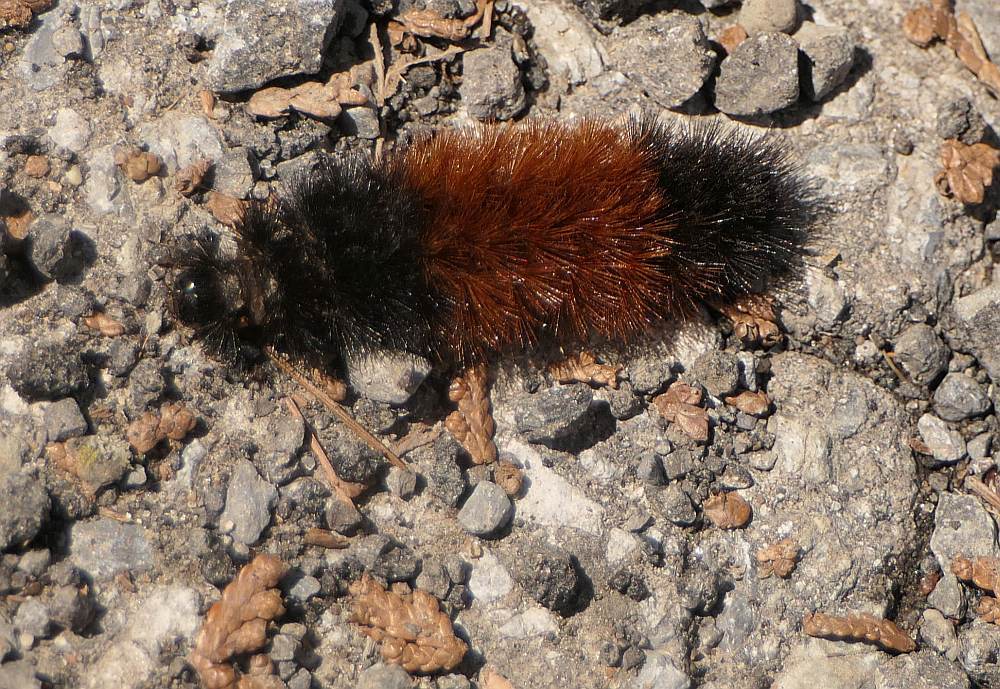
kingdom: Animalia
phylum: Arthropoda
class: Insecta
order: Lepidoptera
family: Erebidae
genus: Pyrrharctia
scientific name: Pyrrharctia isabella
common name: Isabella tiger moth
